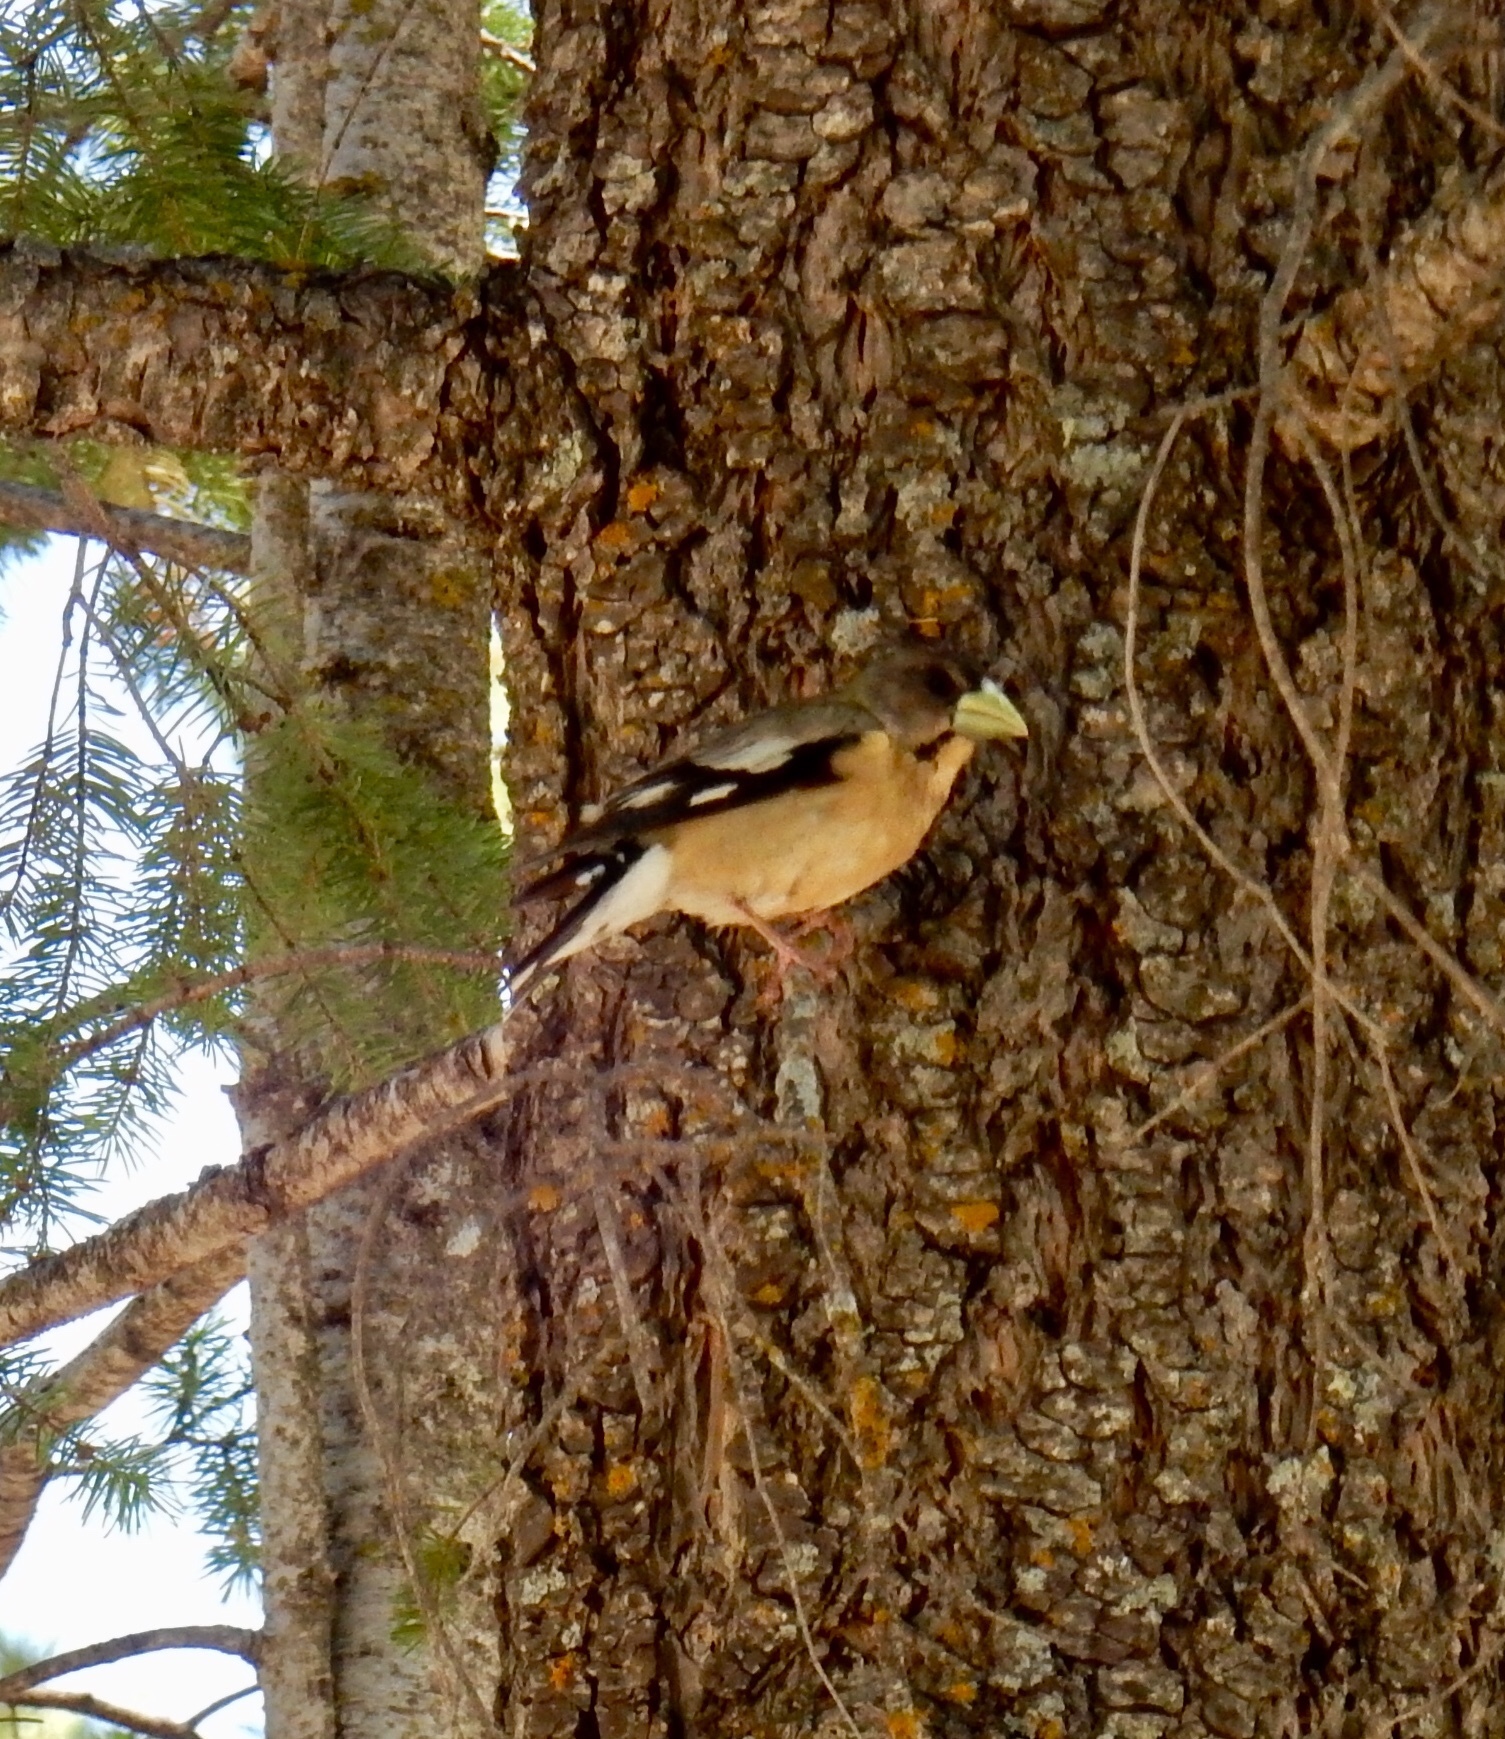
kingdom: Animalia
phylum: Chordata
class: Aves
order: Passeriformes
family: Fringillidae
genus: Hesperiphona
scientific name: Hesperiphona vespertina
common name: Evening grosbeak
